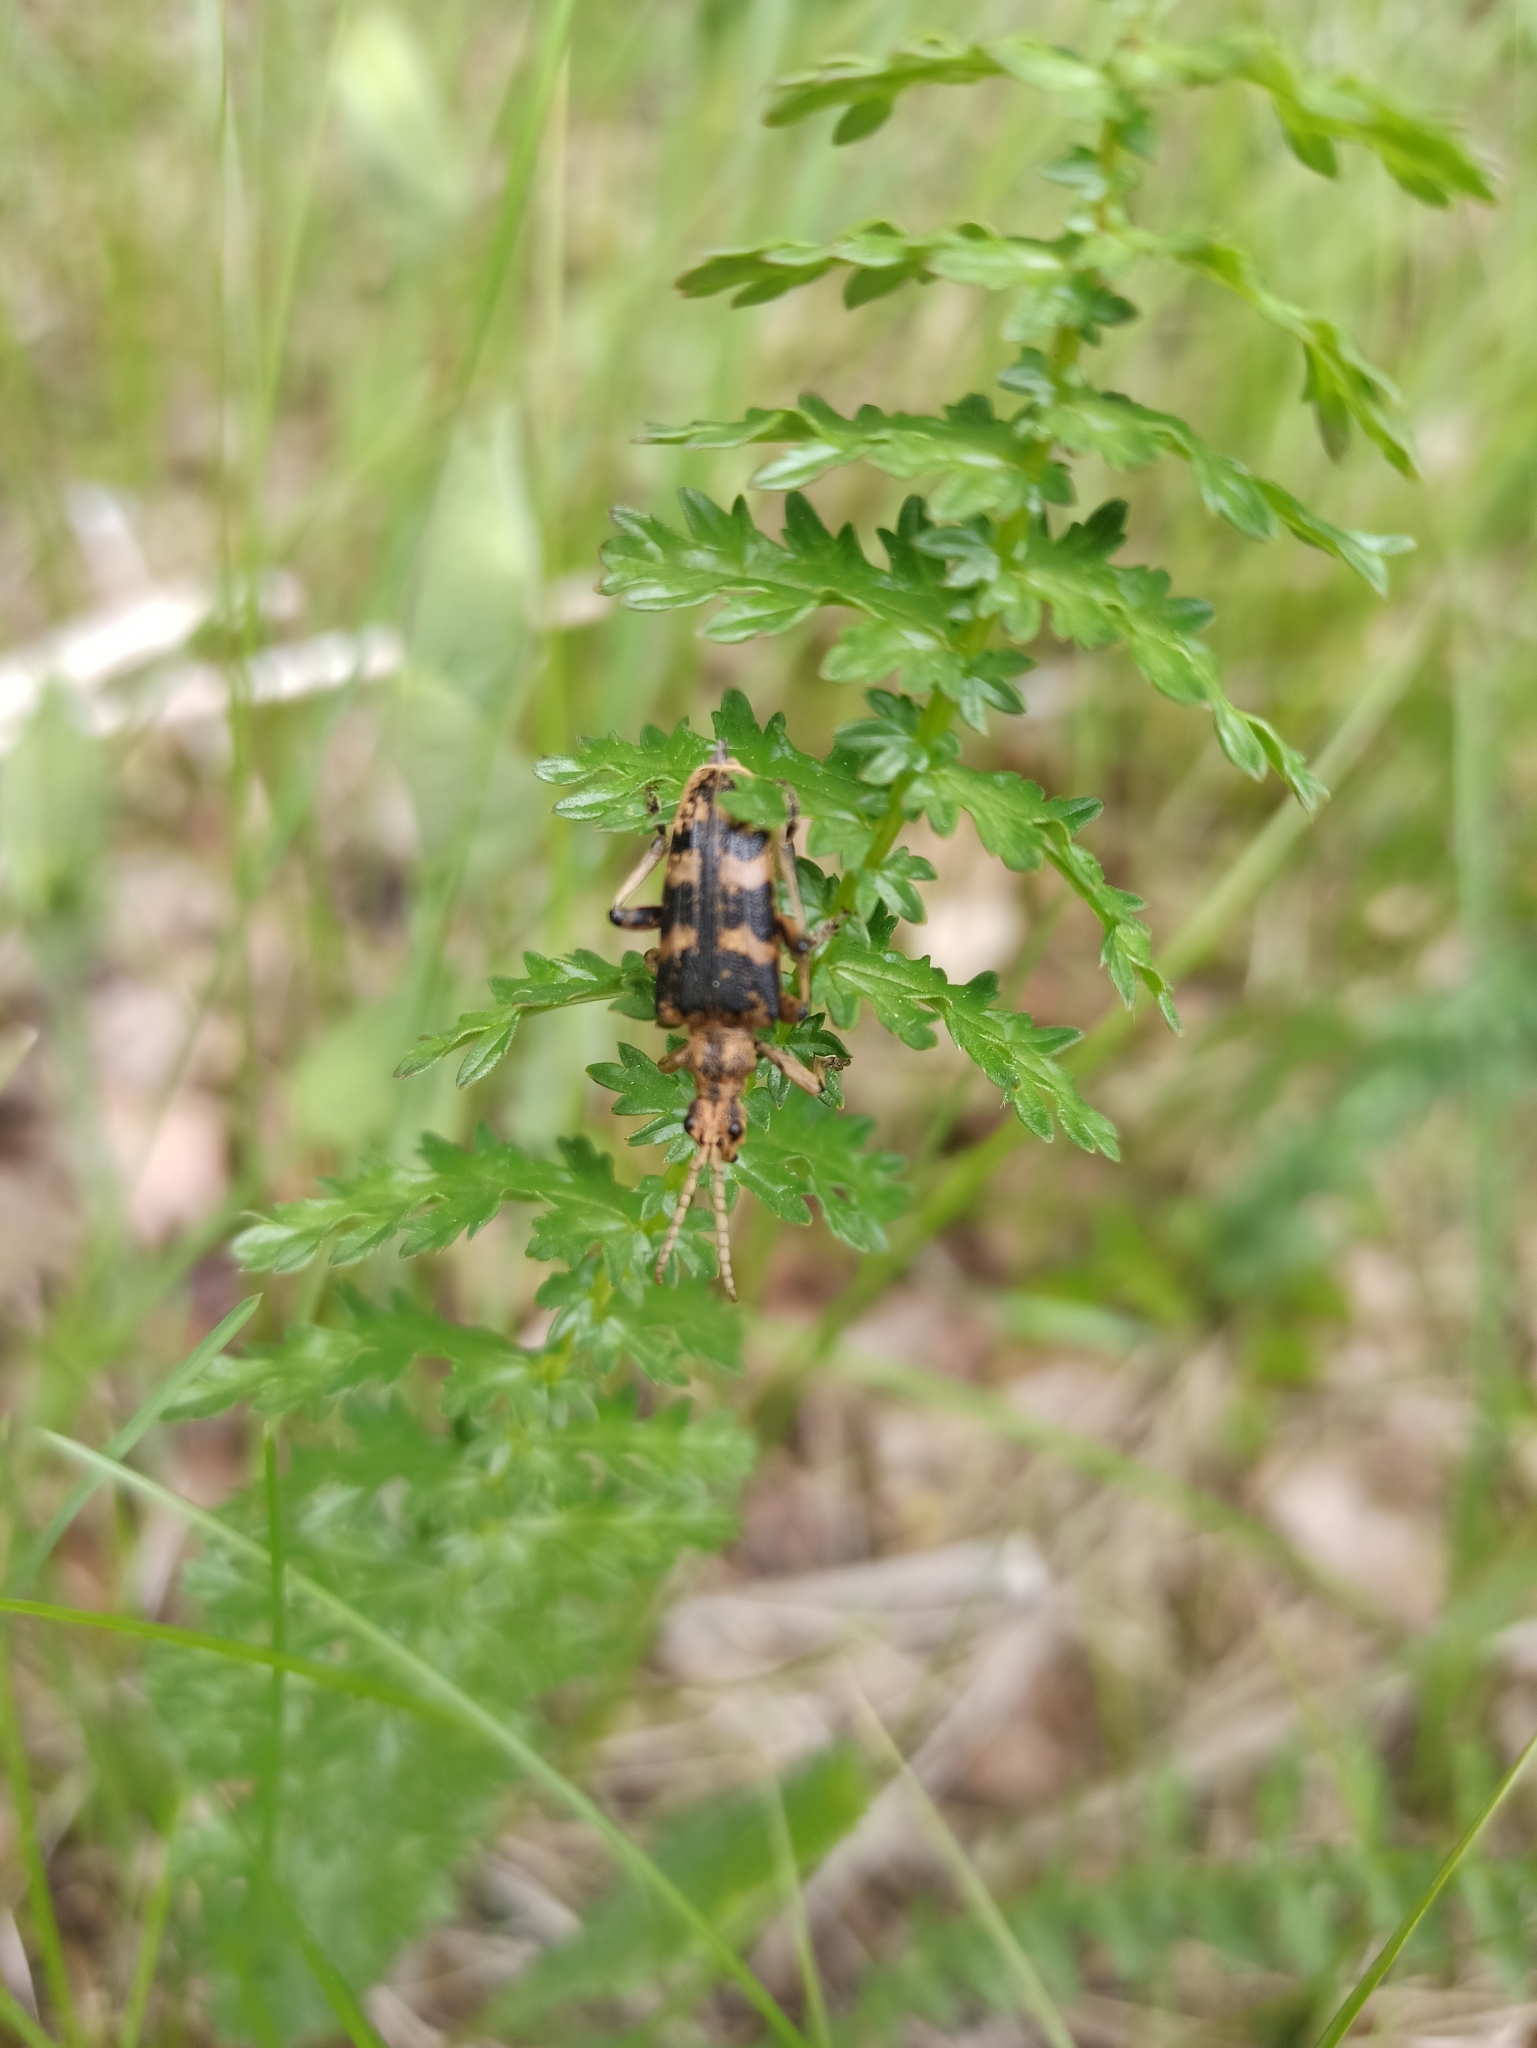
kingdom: Animalia
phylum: Arthropoda
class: Insecta
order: Coleoptera
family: Cerambycidae
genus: Rhagium
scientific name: Rhagium sycophanta
